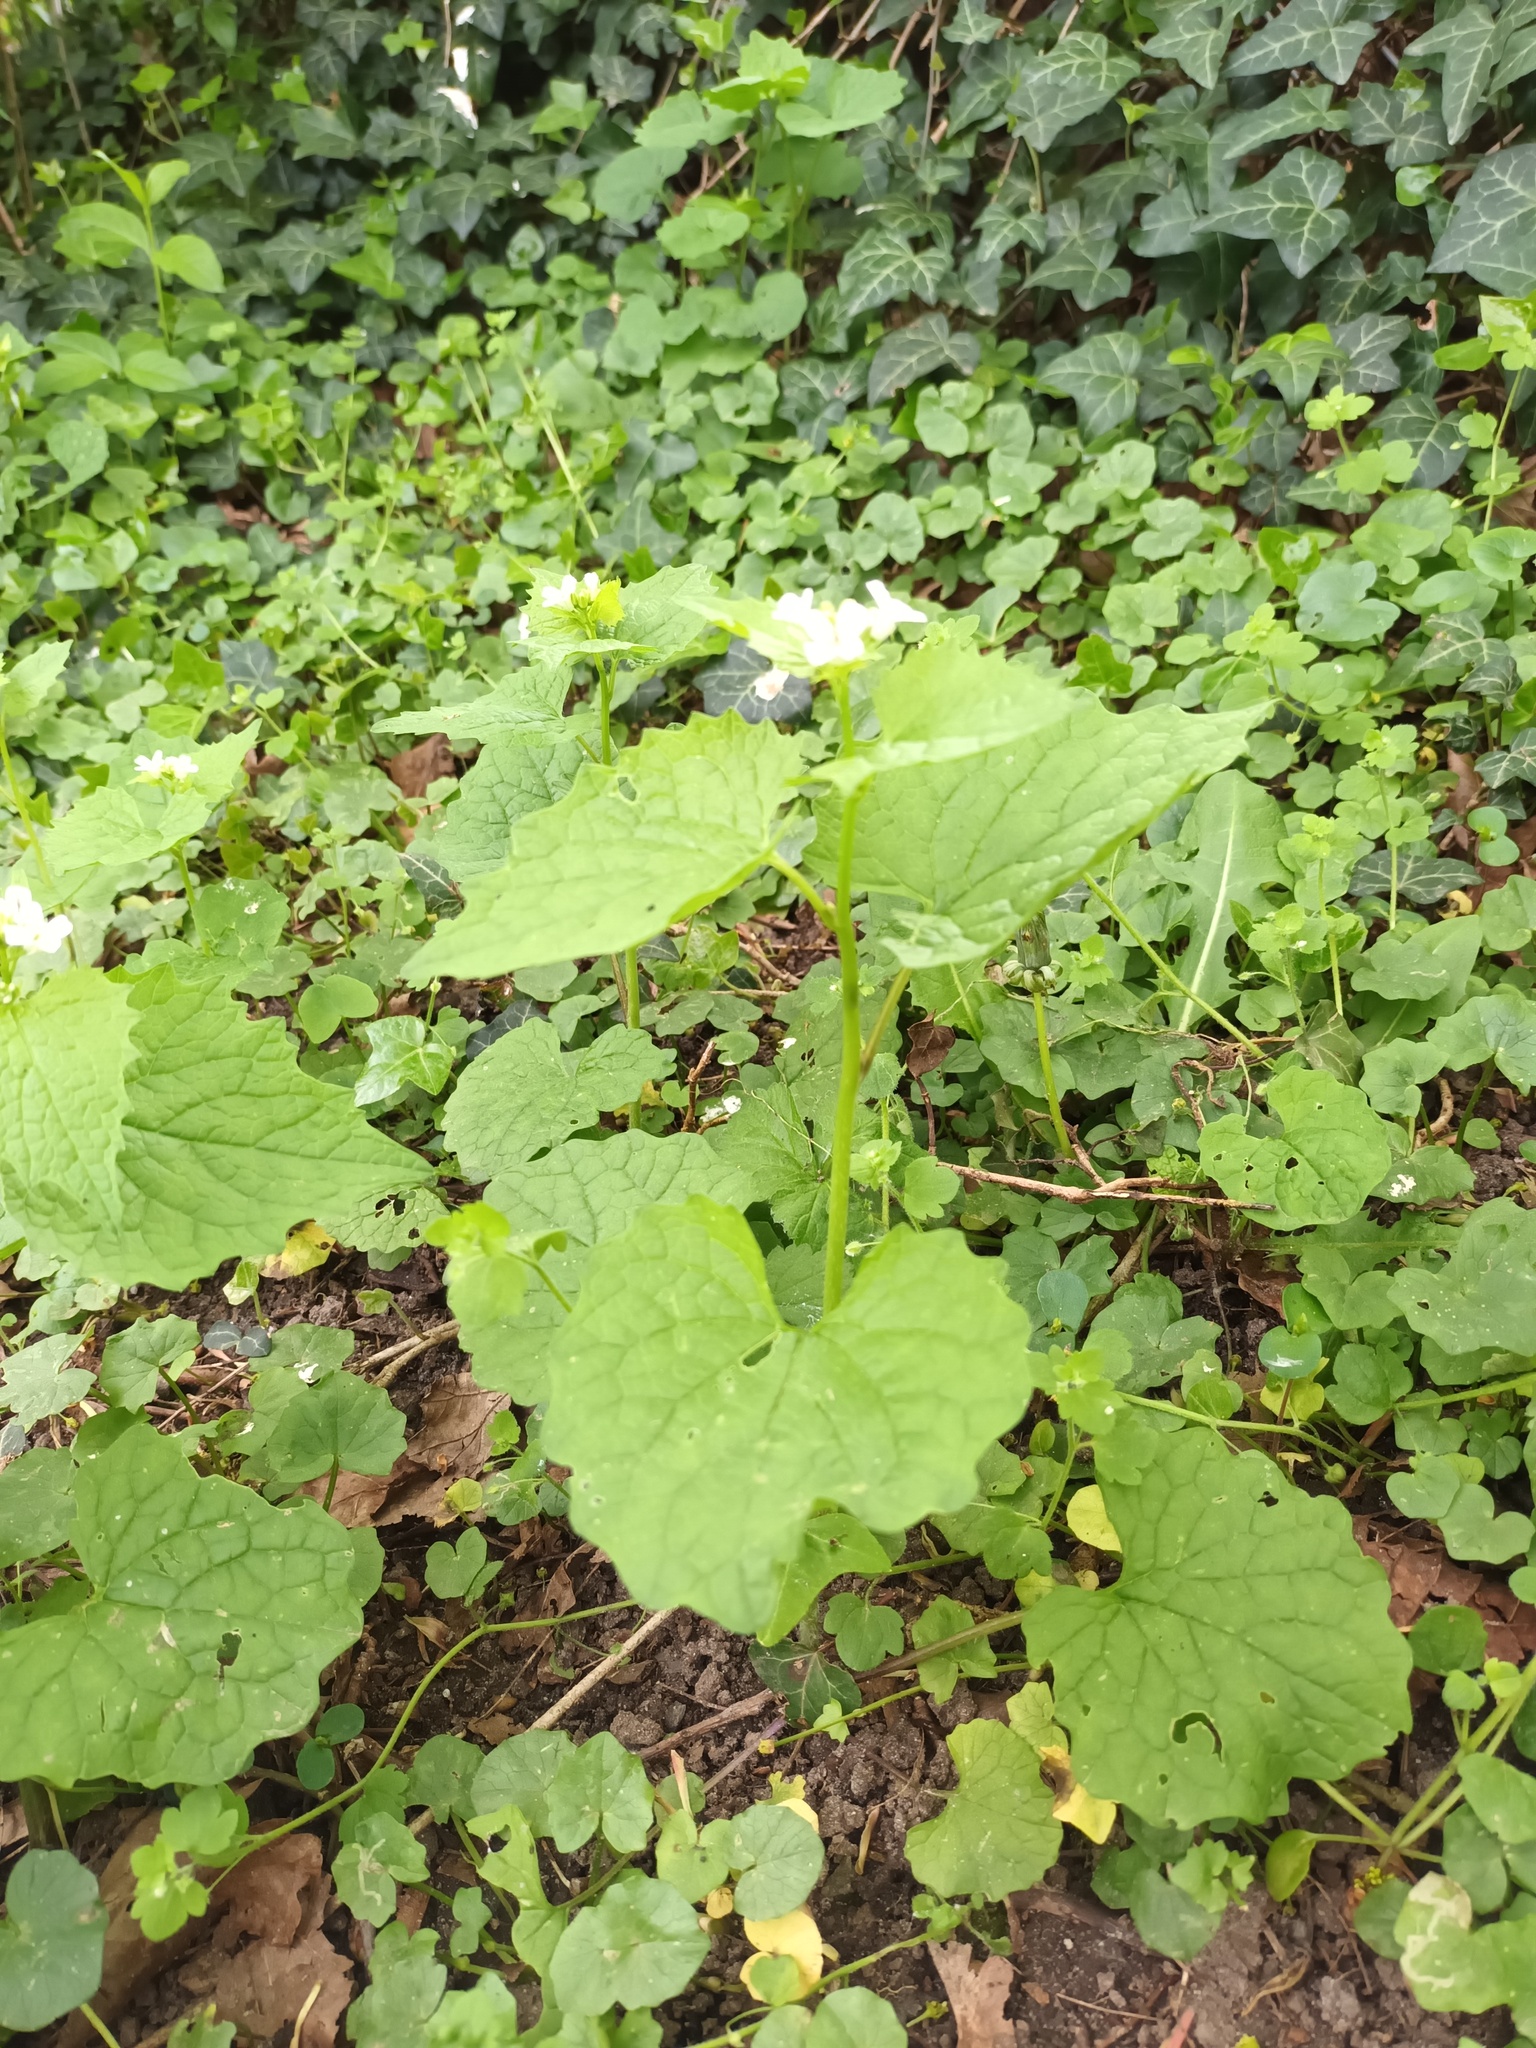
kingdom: Plantae
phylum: Tracheophyta
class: Magnoliopsida
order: Brassicales
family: Brassicaceae
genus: Alliaria
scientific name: Alliaria petiolata
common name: Garlic mustard
